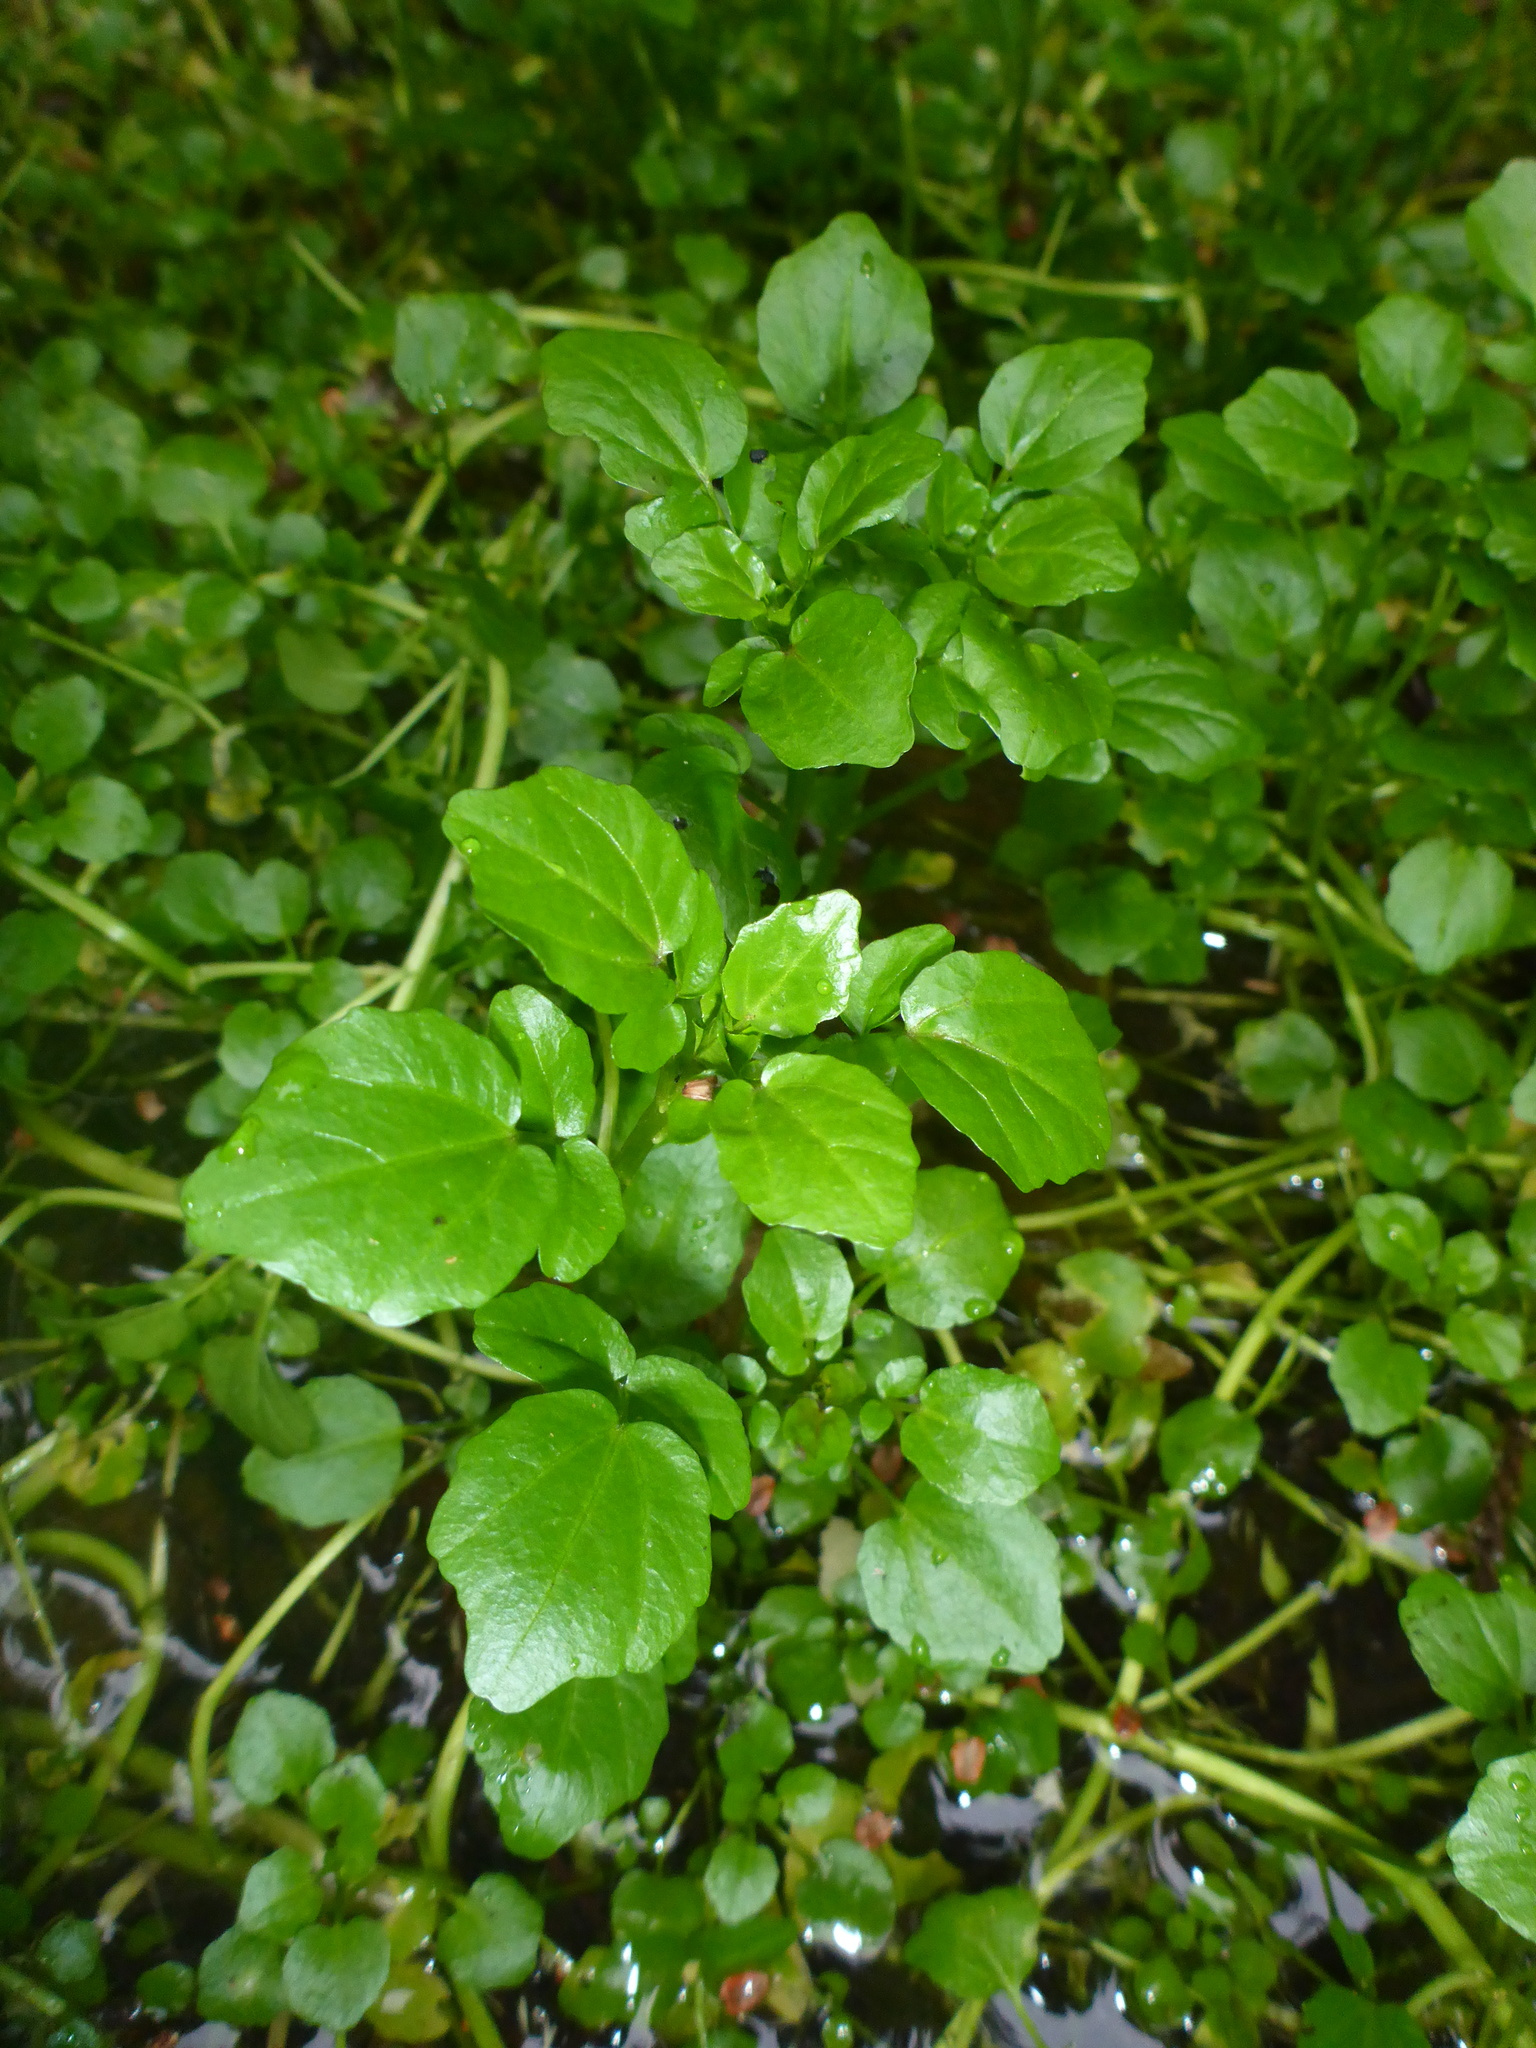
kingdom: Plantae
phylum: Tracheophyta
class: Magnoliopsida
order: Brassicales
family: Brassicaceae
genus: Nasturtium
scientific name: Nasturtium officinale
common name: Watercress
